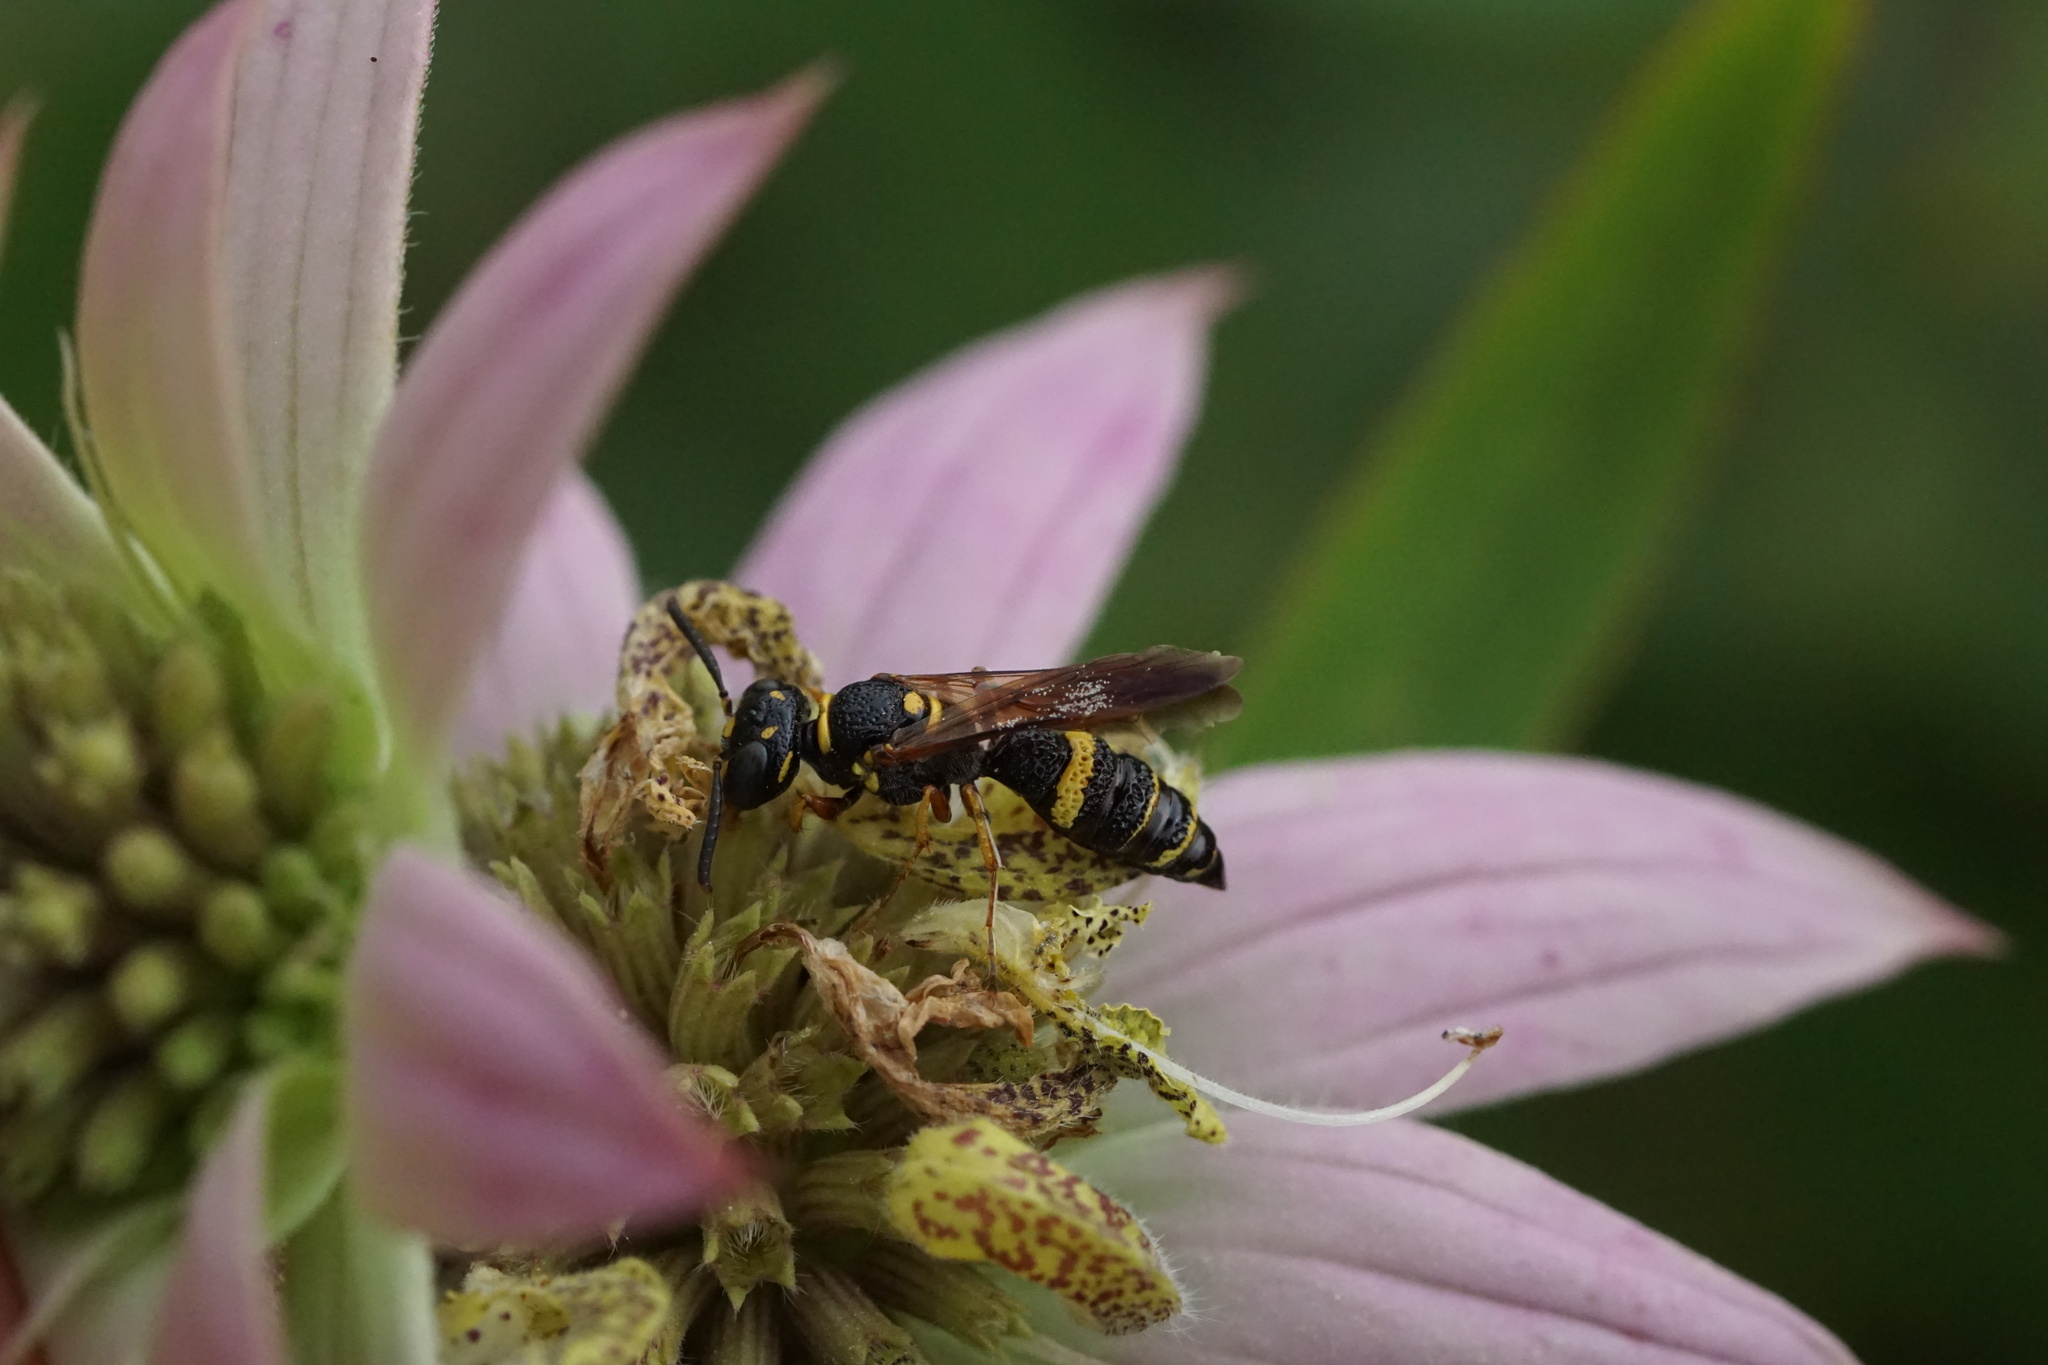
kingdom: Animalia
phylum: Arthropoda
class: Insecta
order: Hymenoptera
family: Crabronidae
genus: Philanthus
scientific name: Philanthus gibbosus
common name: Humped beewolf
